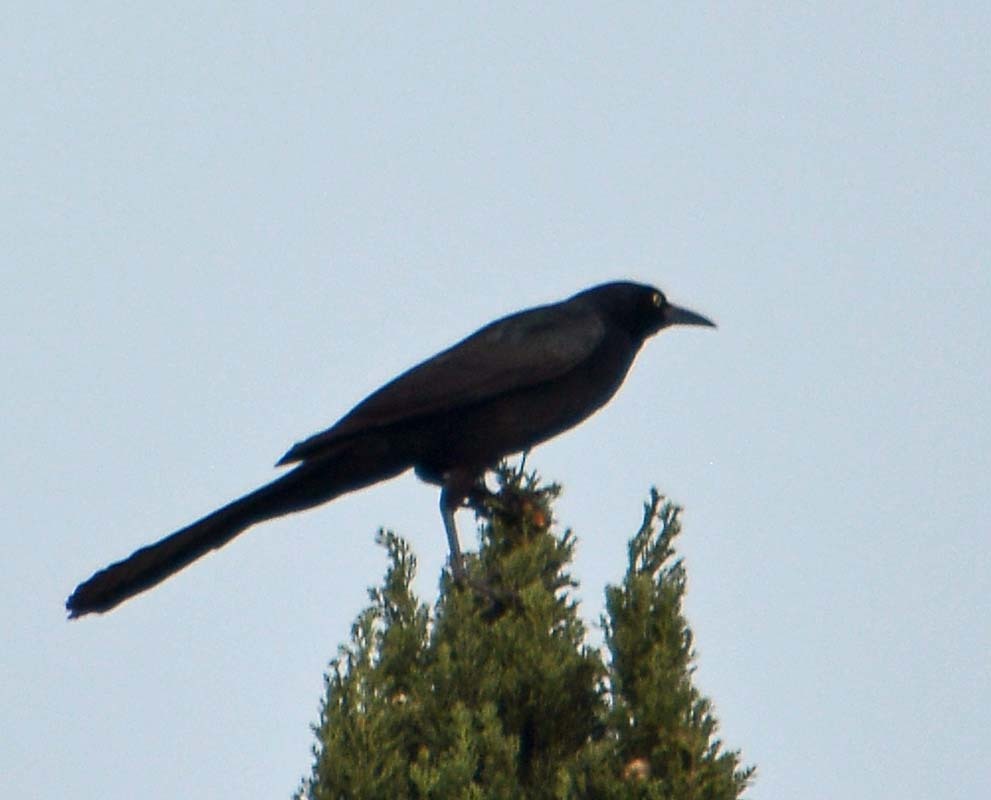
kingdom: Animalia
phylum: Chordata
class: Aves
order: Passeriformes
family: Icteridae
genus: Quiscalus
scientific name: Quiscalus mexicanus
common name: Great-tailed grackle
